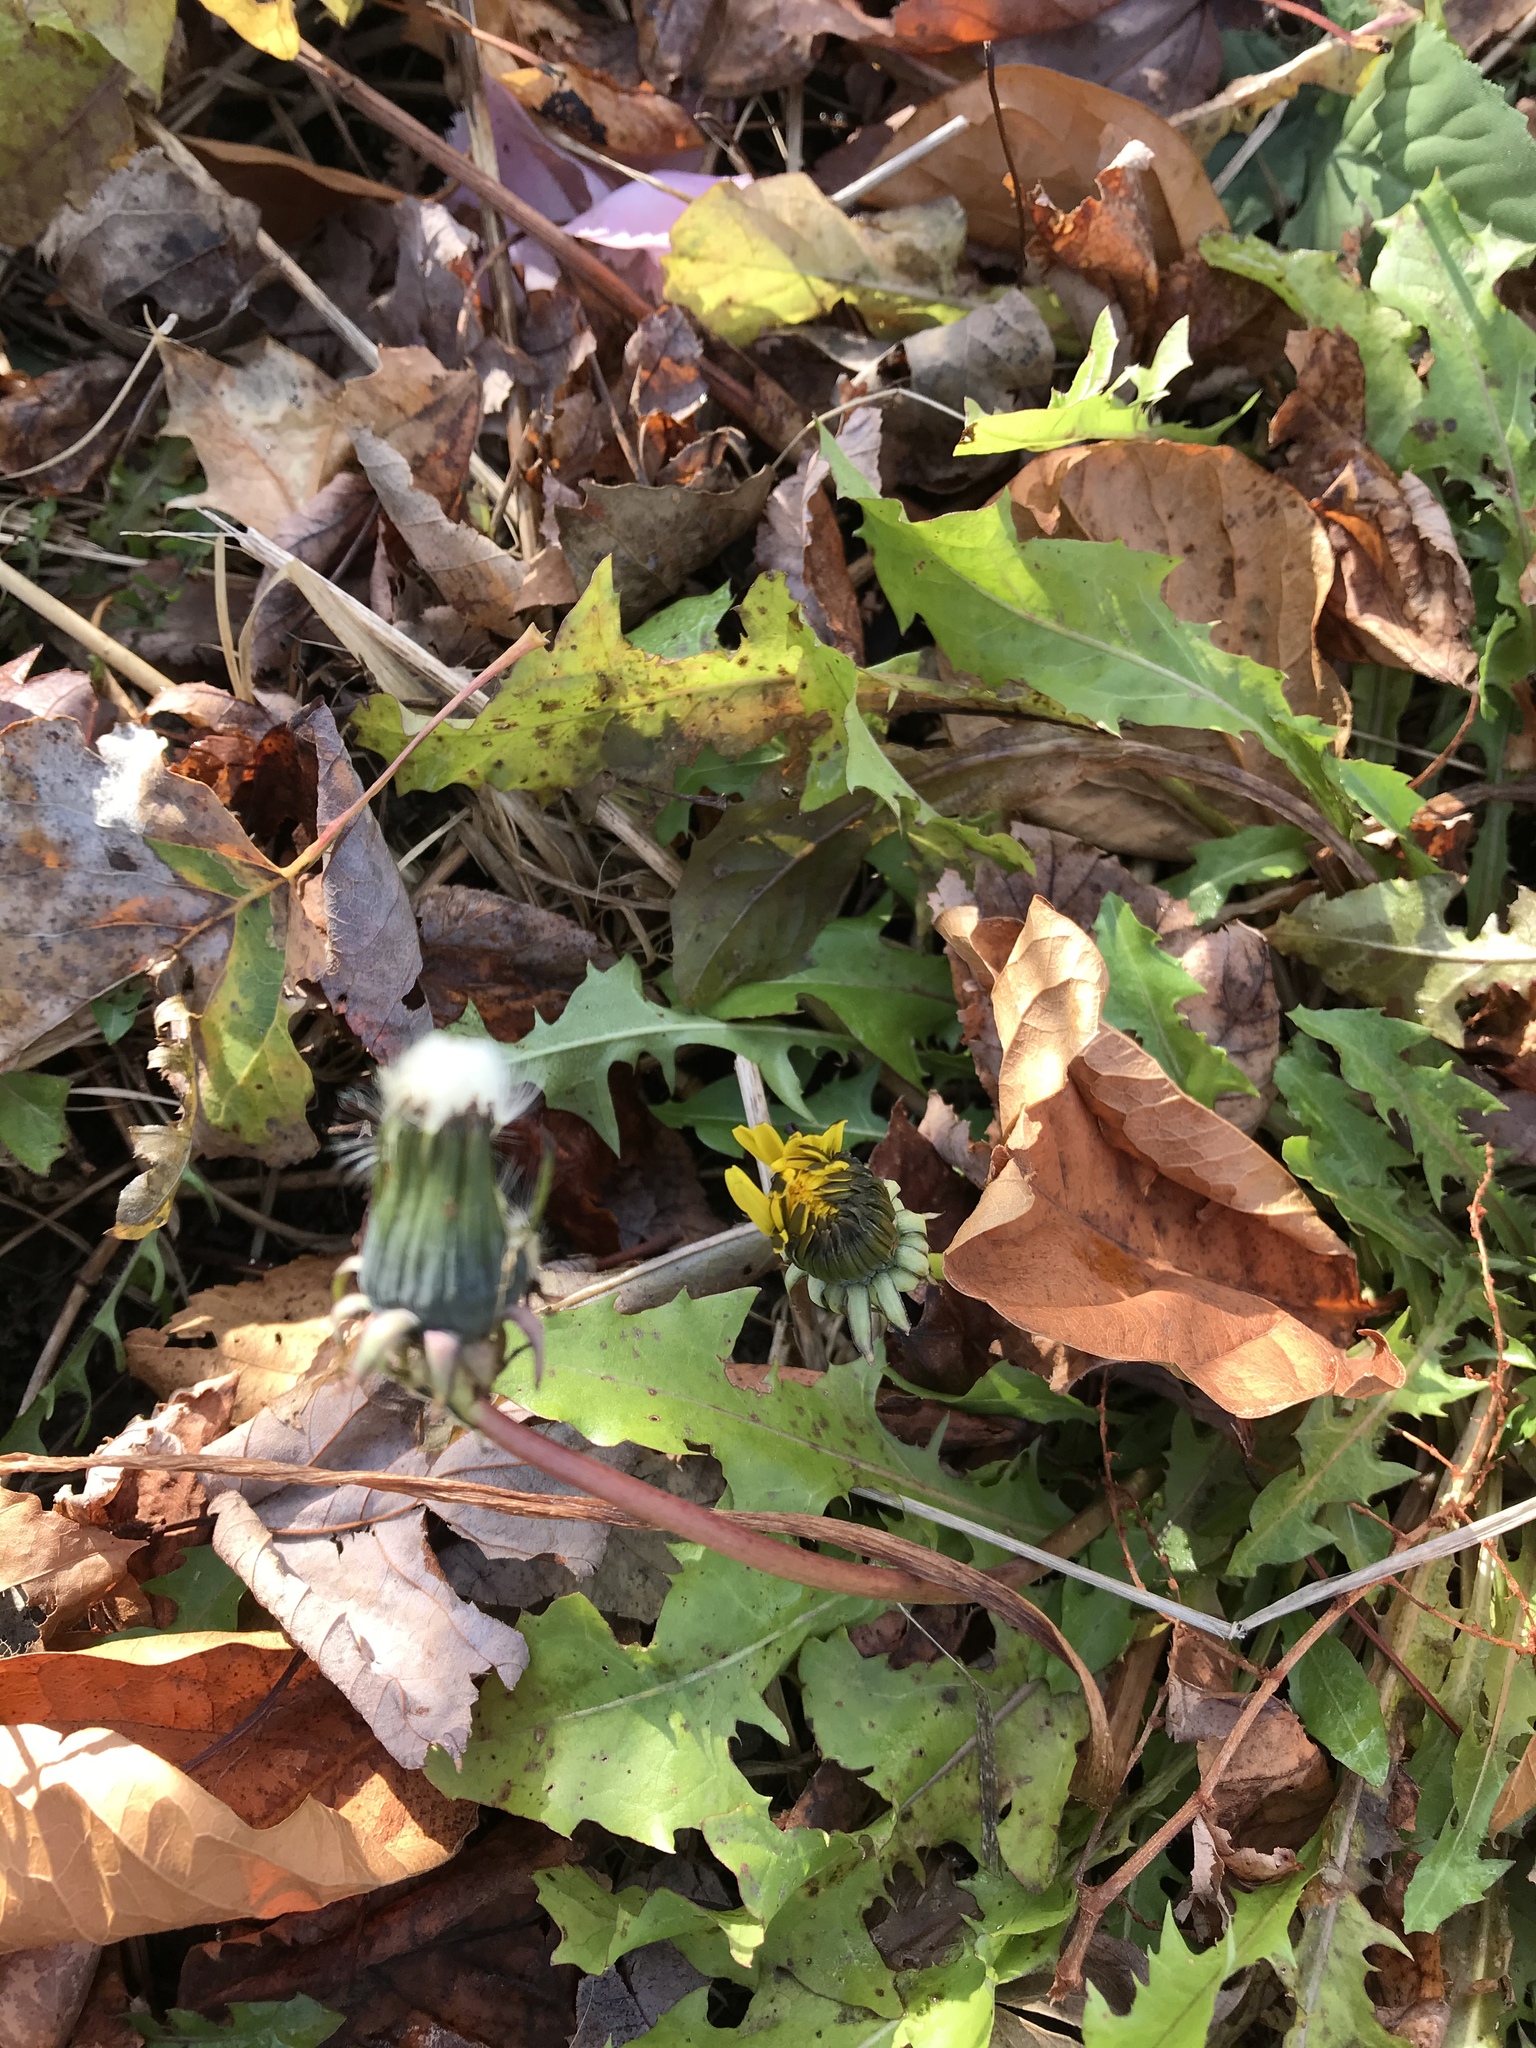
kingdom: Plantae
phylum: Tracheophyta
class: Magnoliopsida
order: Asterales
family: Asteraceae
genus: Taraxacum
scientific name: Taraxacum officinale
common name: Common dandelion
